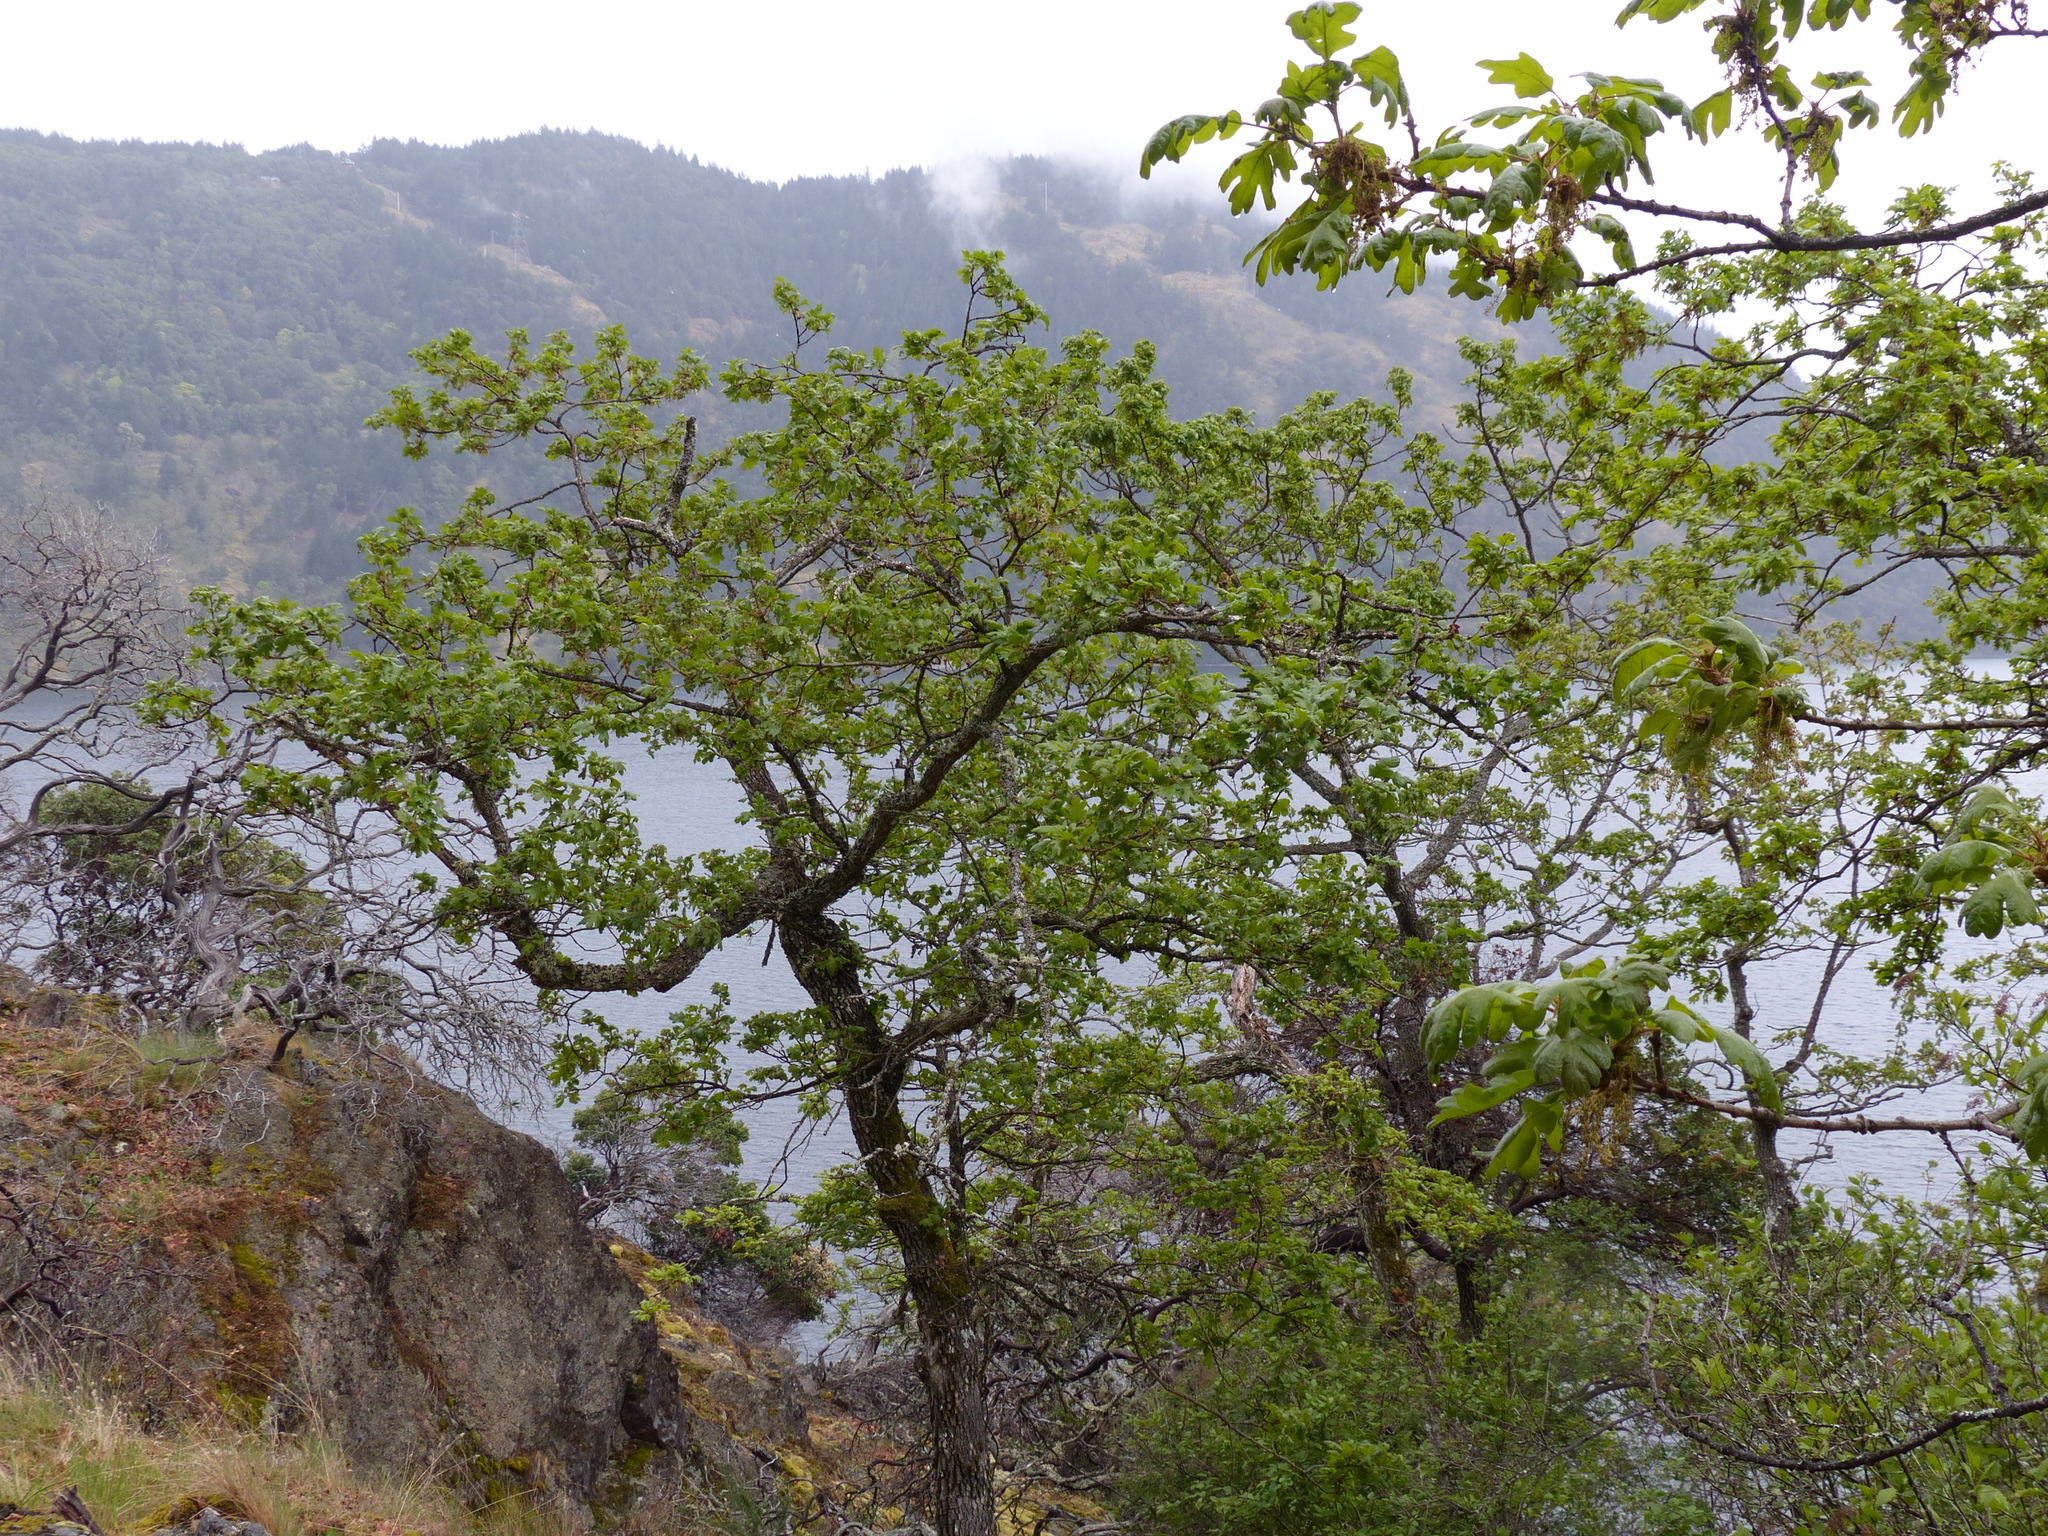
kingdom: Plantae
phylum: Tracheophyta
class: Magnoliopsida
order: Fagales
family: Fagaceae
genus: Quercus
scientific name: Quercus garryana
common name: Garry oak
